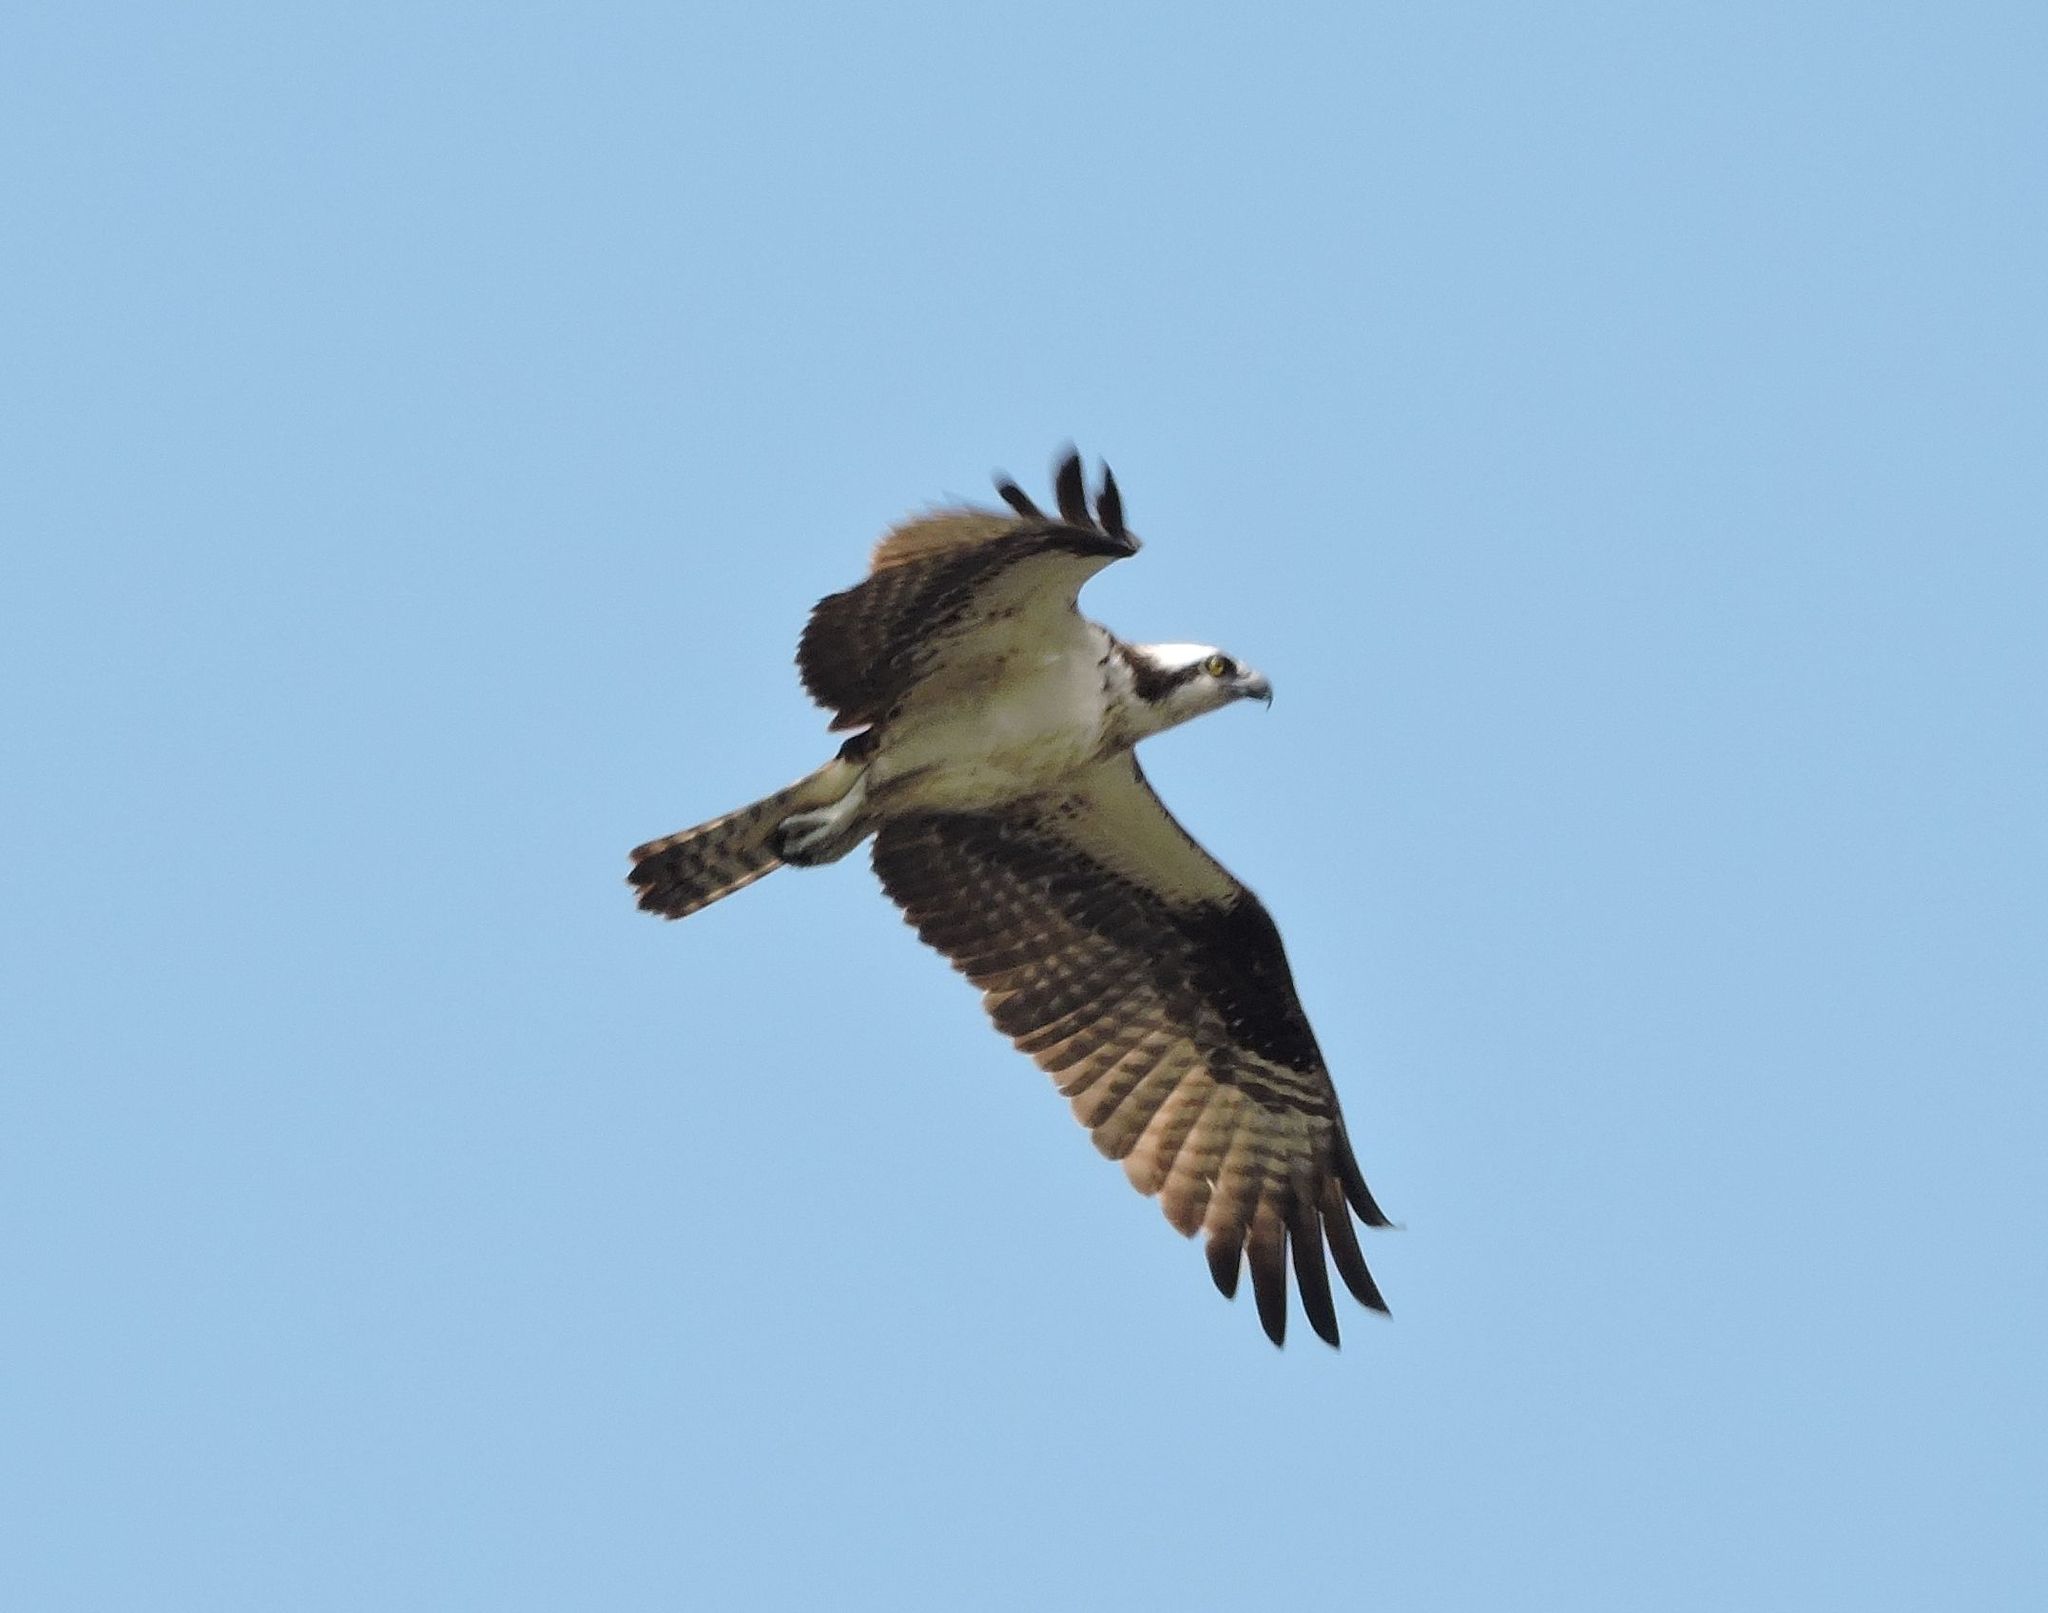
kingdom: Animalia
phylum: Chordata
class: Aves
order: Accipitriformes
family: Pandionidae
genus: Pandion
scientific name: Pandion haliaetus
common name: Osprey
